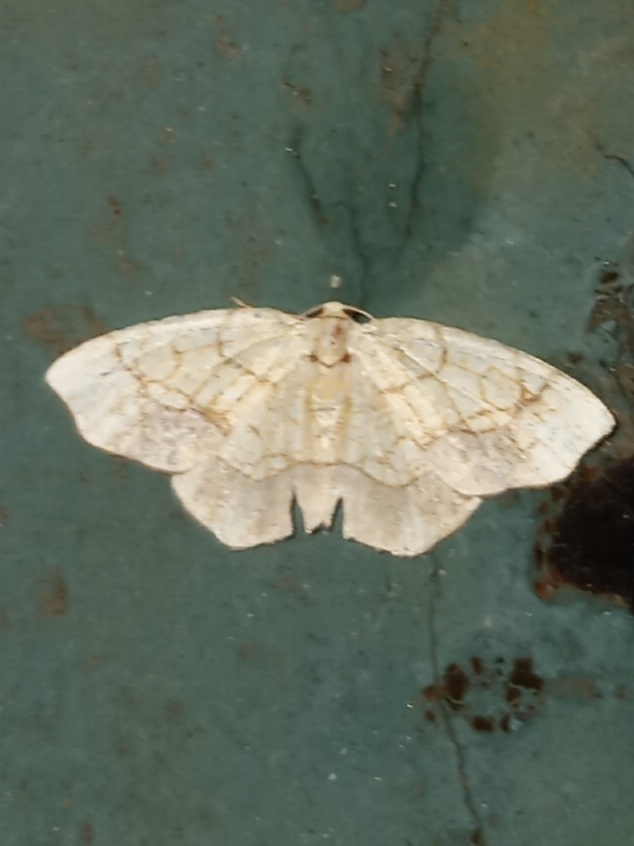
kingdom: Animalia
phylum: Arthropoda
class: Insecta
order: Lepidoptera
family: Geometridae
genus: Nematocampa
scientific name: Nematocampa resistaria
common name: Horned spanworm moth
